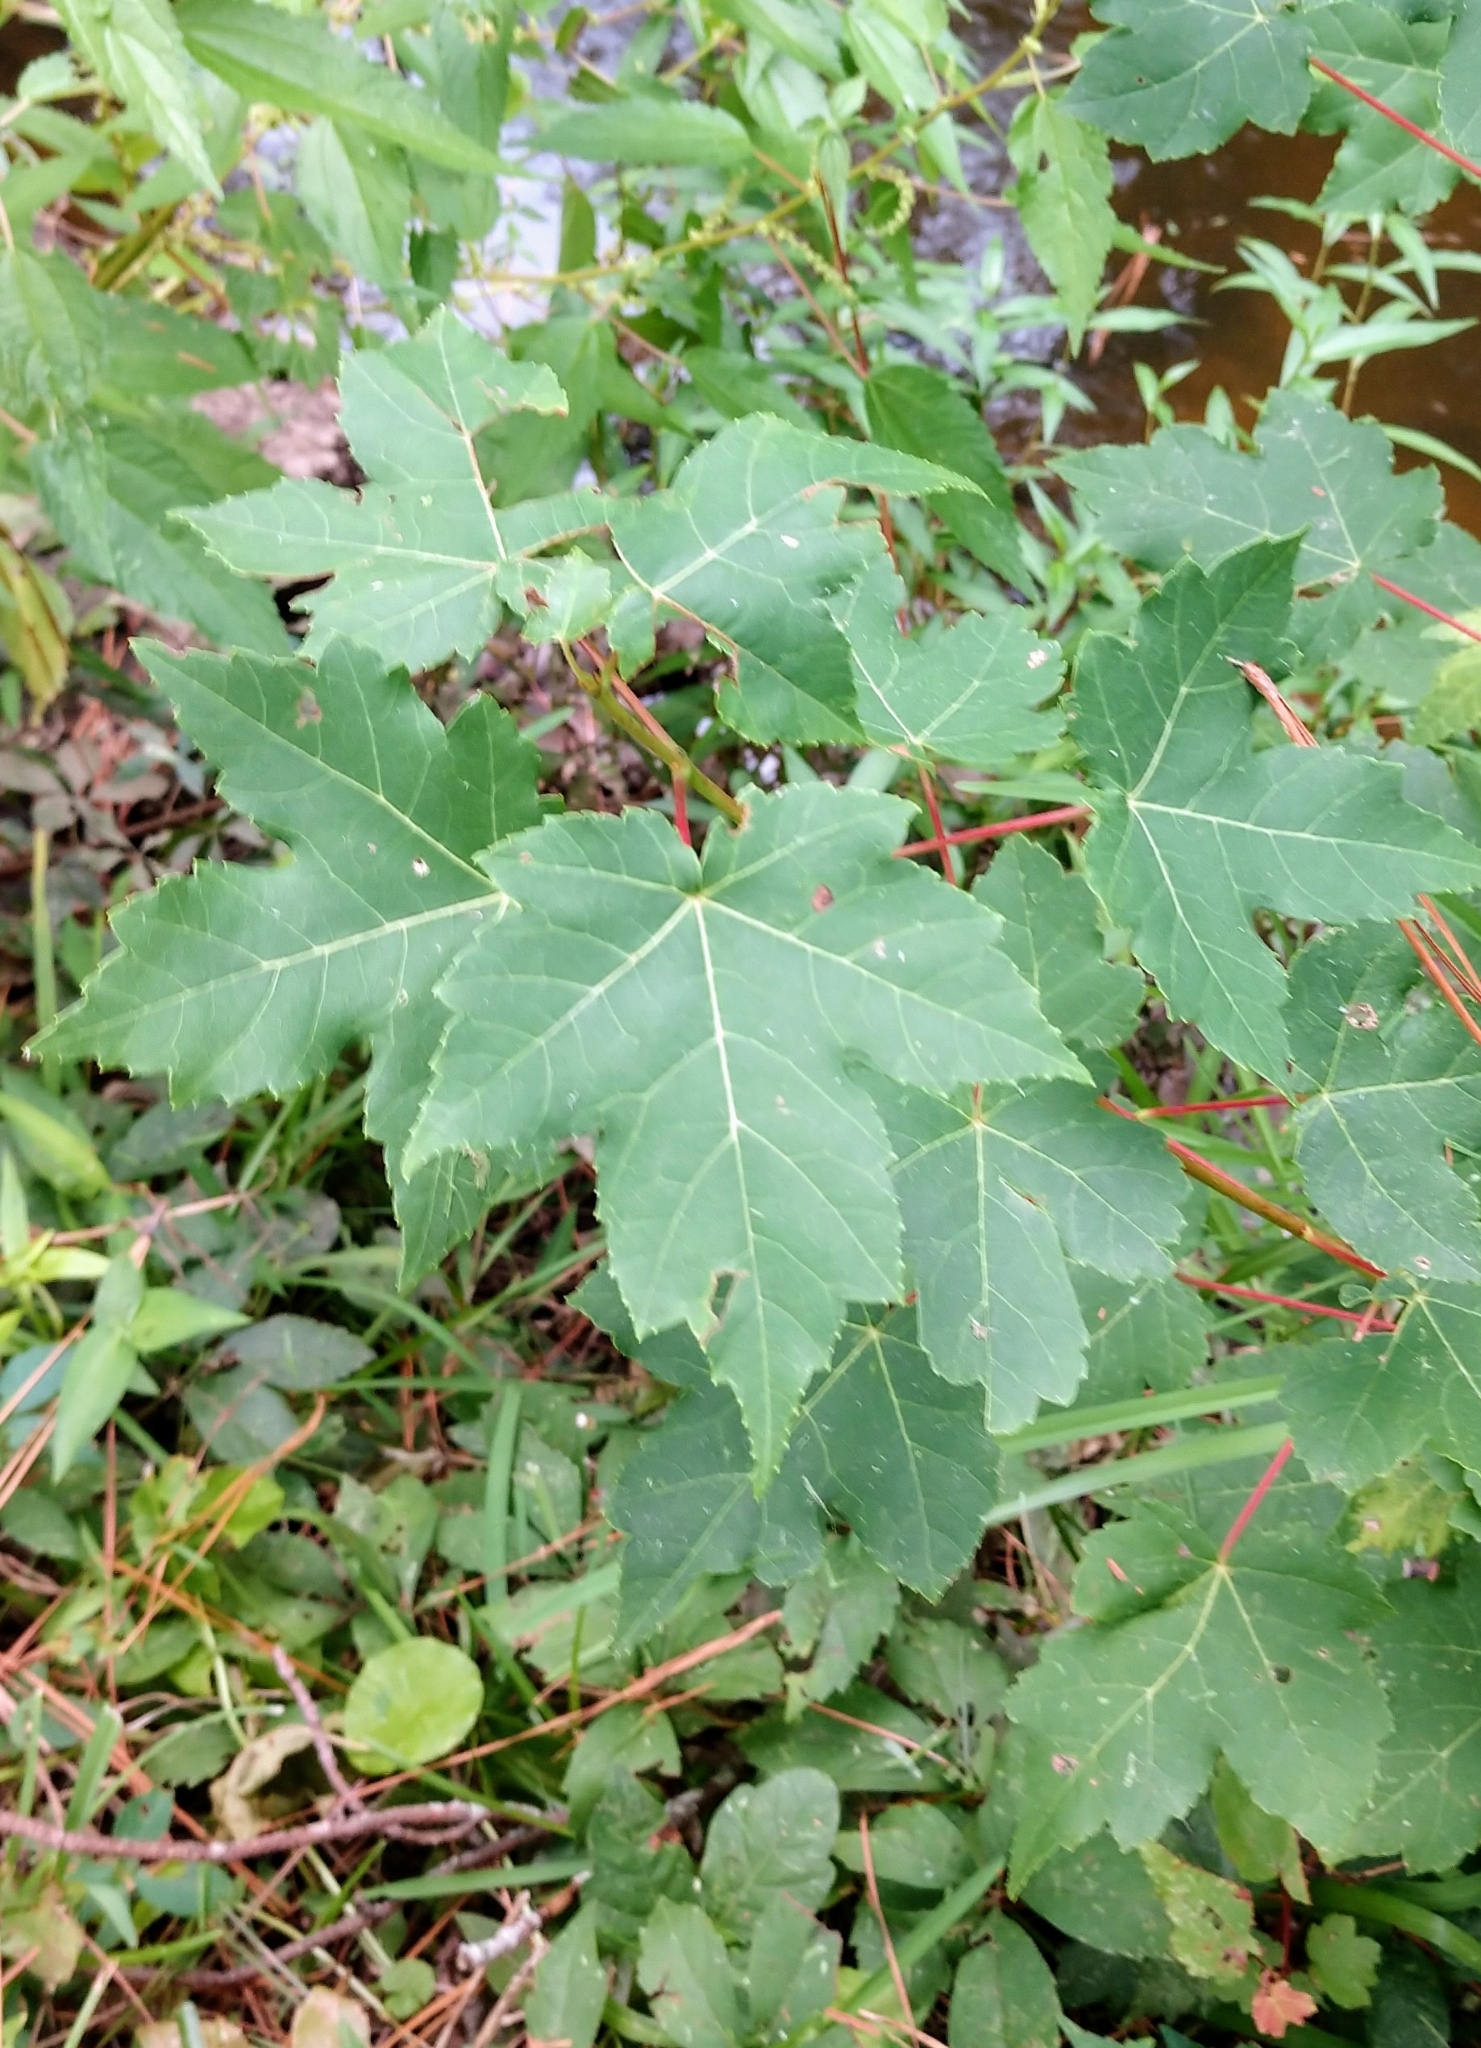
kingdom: Plantae
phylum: Tracheophyta
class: Magnoliopsida
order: Sapindales
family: Sapindaceae
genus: Acer
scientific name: Acer rubrum
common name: Red maple
